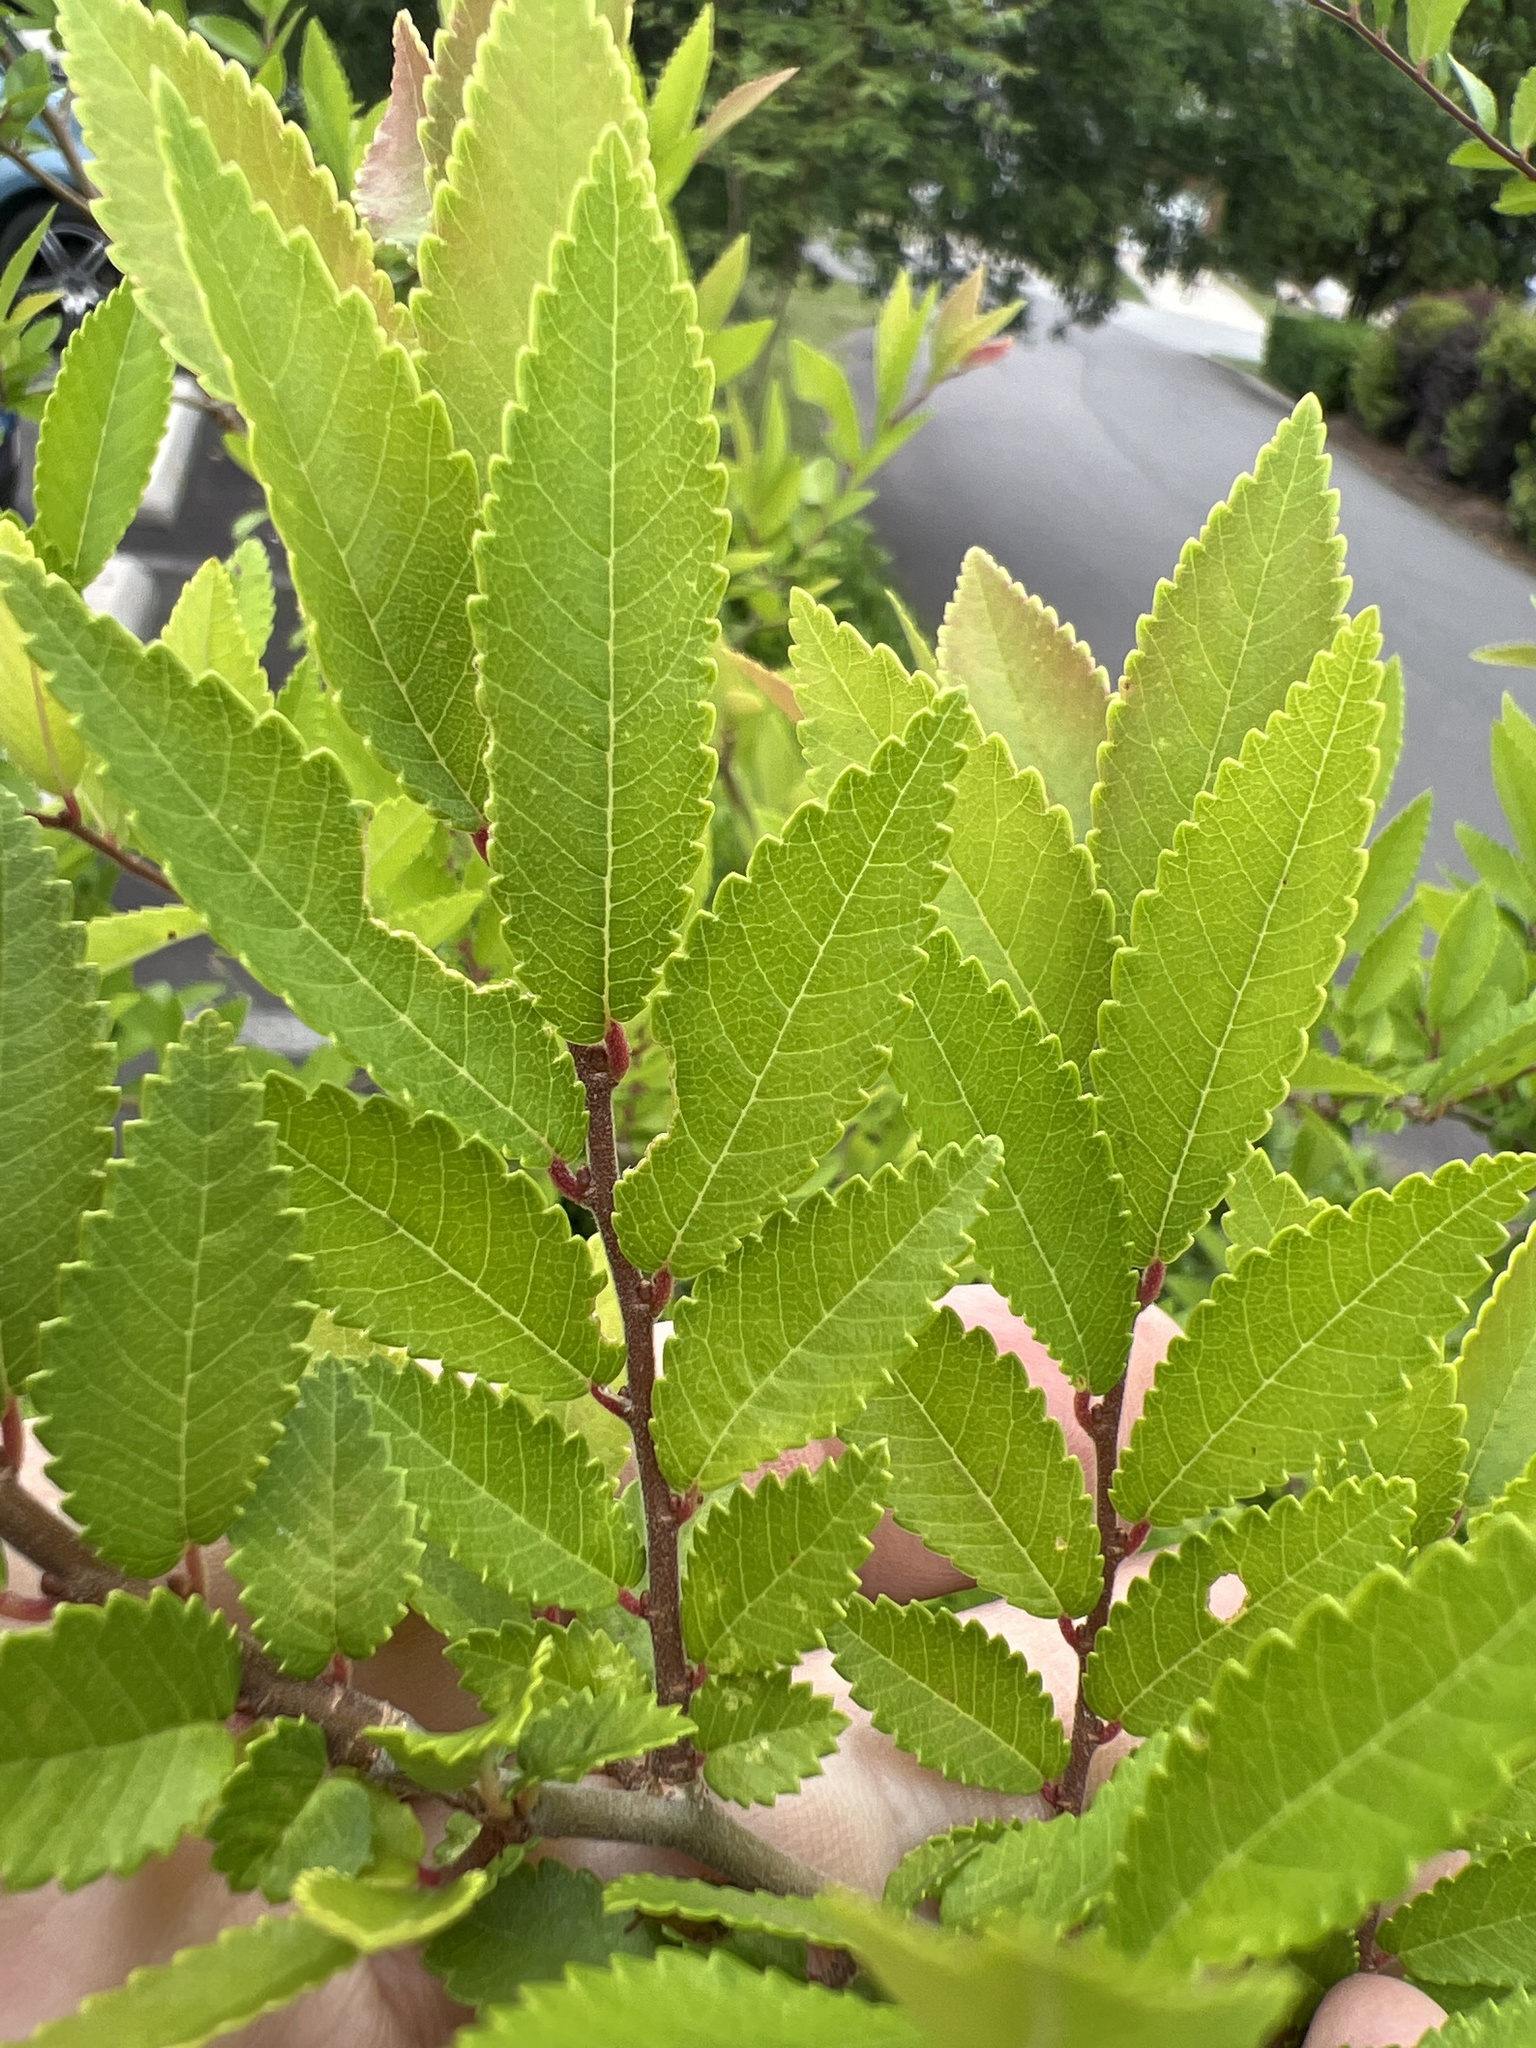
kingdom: Plantae
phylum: Tracheophyta
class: Magnoliopsida
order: Rosales
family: Ulmaceae
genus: Ulmus
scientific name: Ulmus parvifolia
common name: Chinese elm
